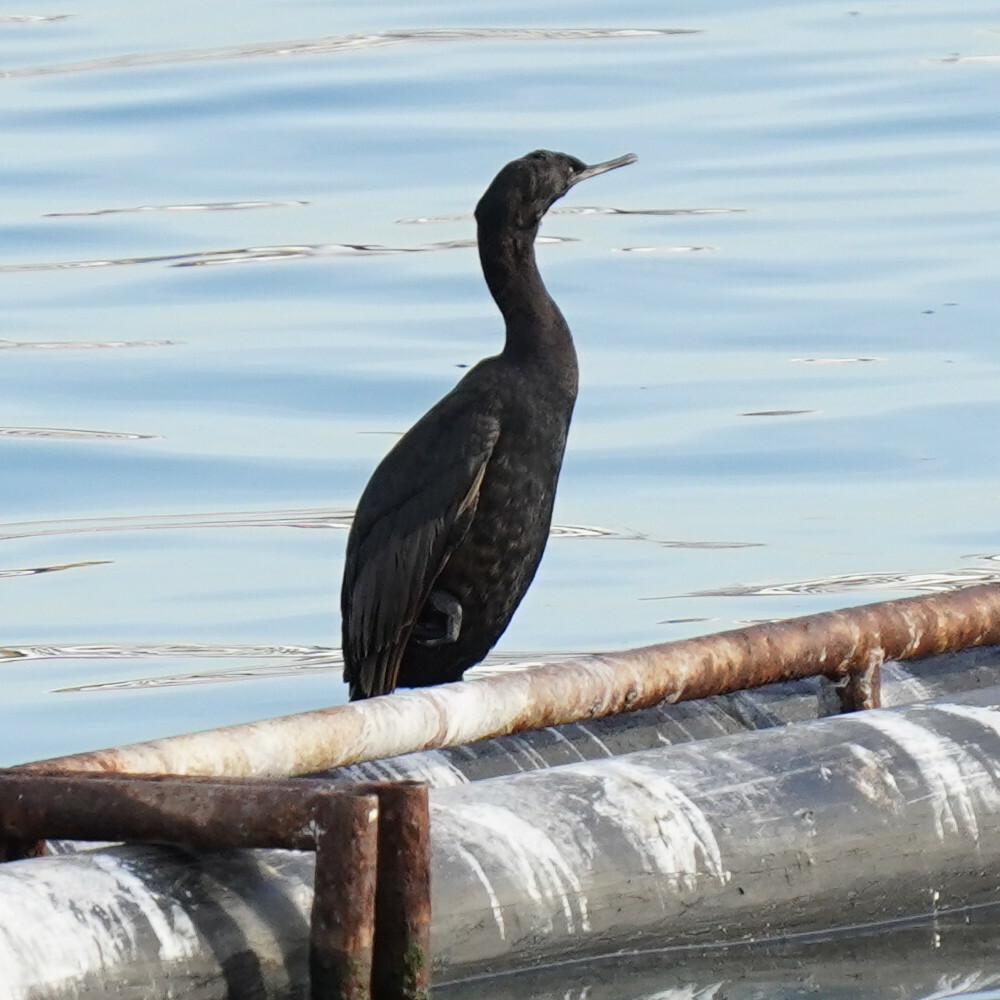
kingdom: Animalia
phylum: Chordata
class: Aves
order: Suliformes
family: Phalacrocoracidae
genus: Phalacrocorax
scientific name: Phalacrocorax pelagicus
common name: Pelagic cormorant
